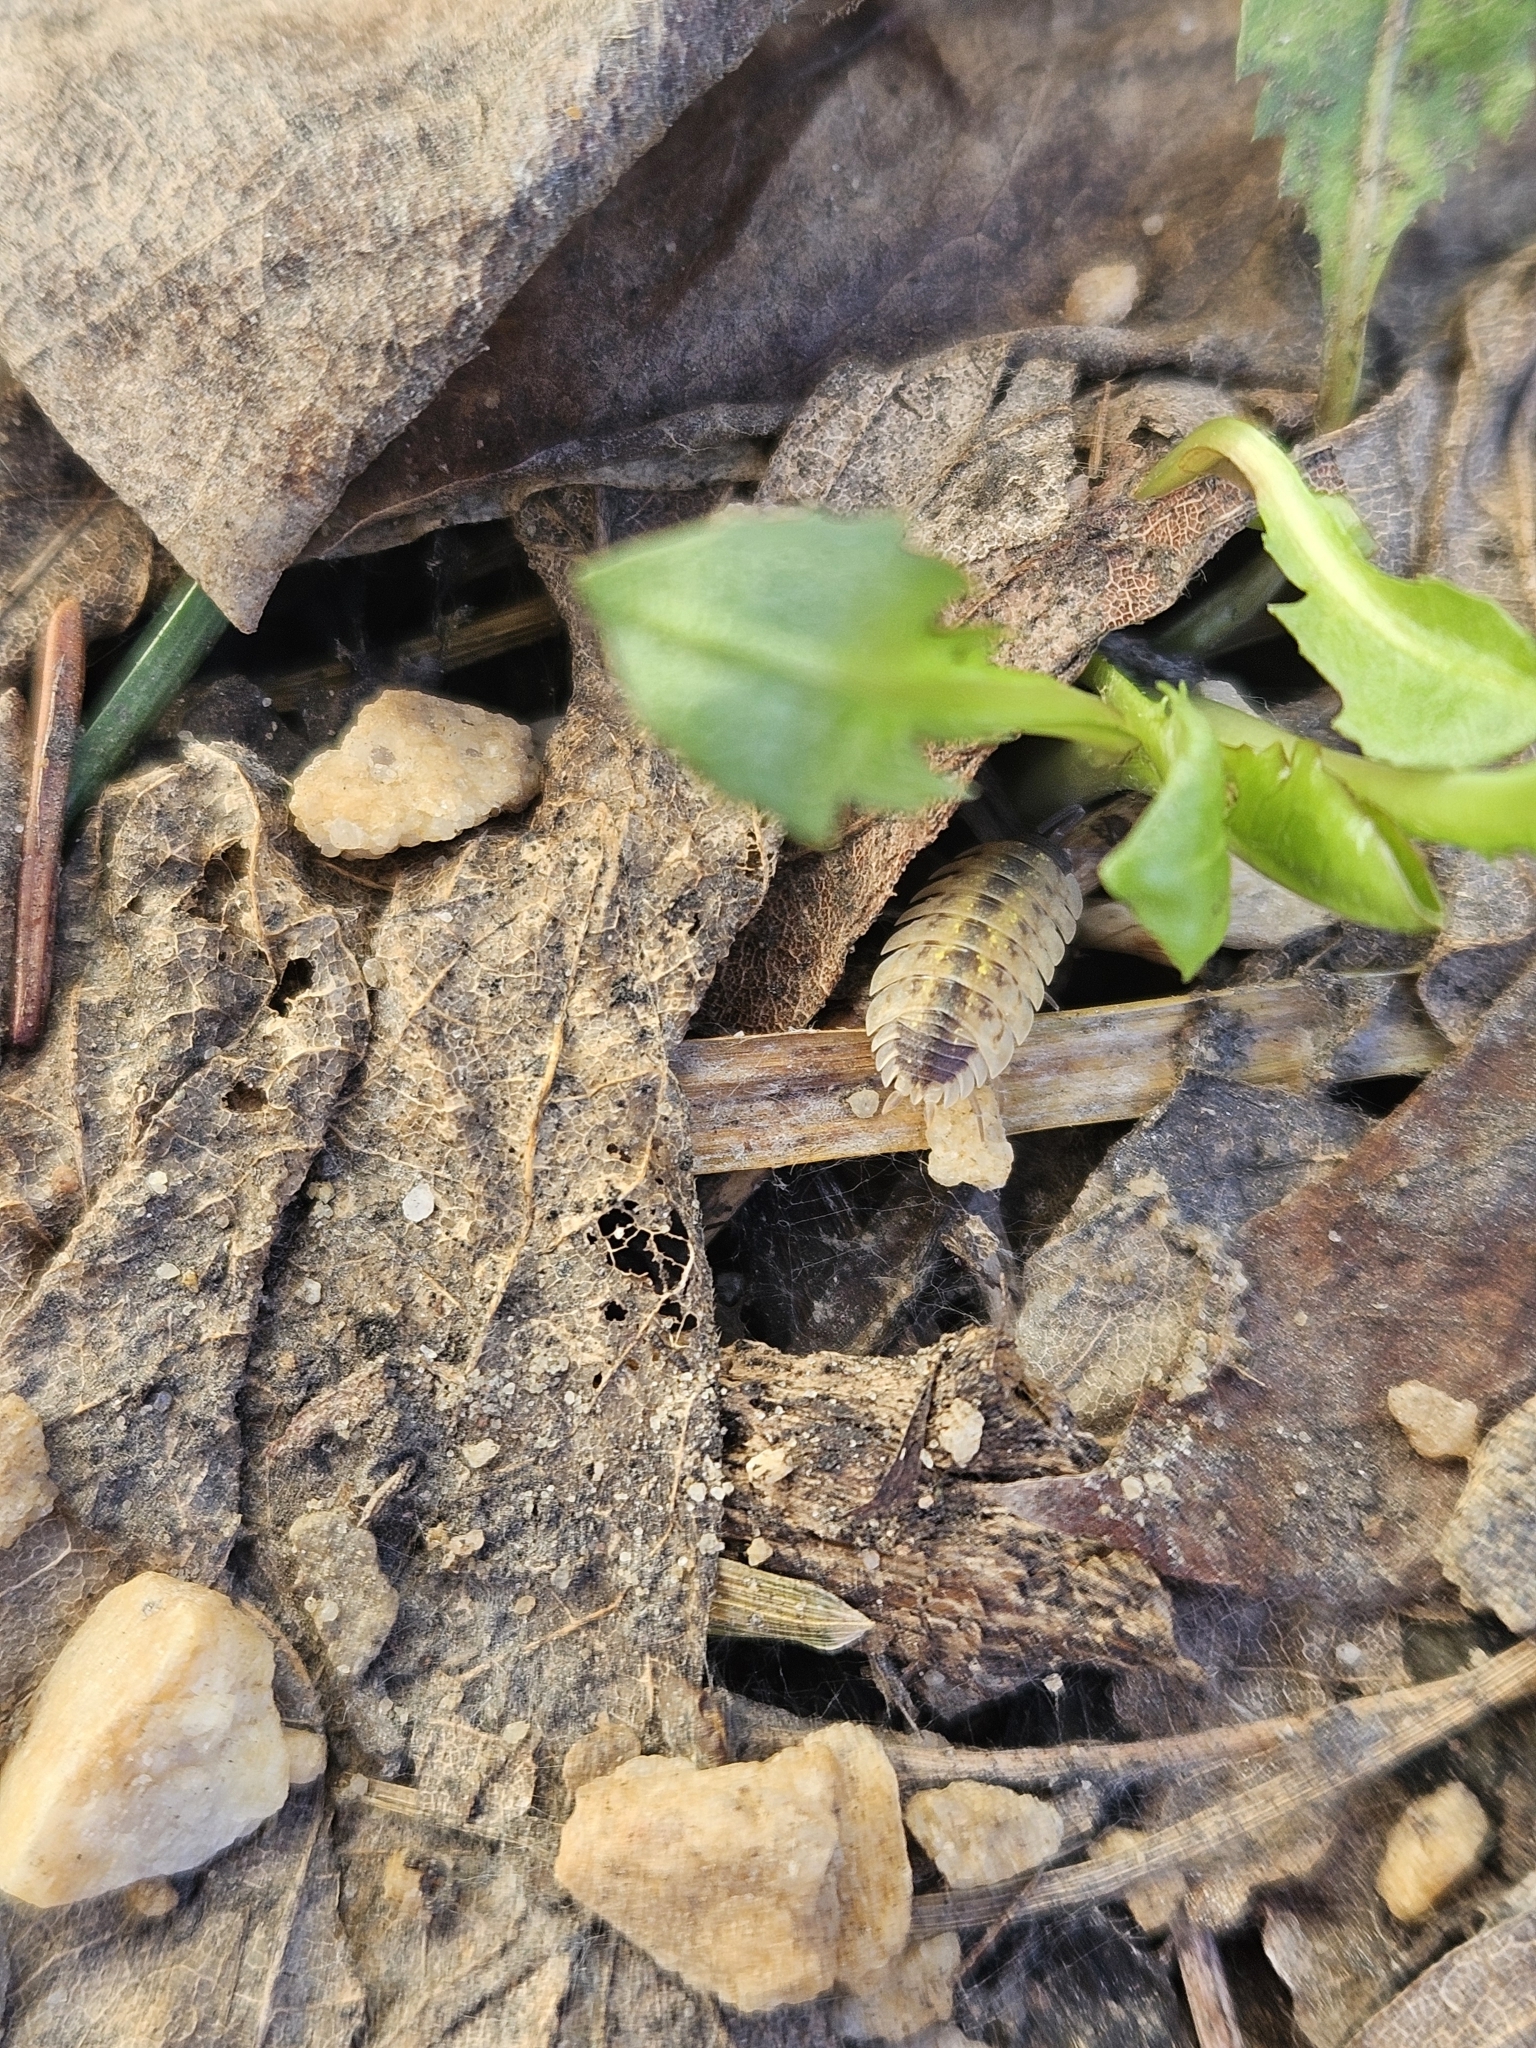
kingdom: Animalia
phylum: Arthropoda
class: Malacostraca
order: Isopoda
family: Porcellionidae
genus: Porcellio
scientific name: Porcellio spinicornis
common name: Painted woodlouse
